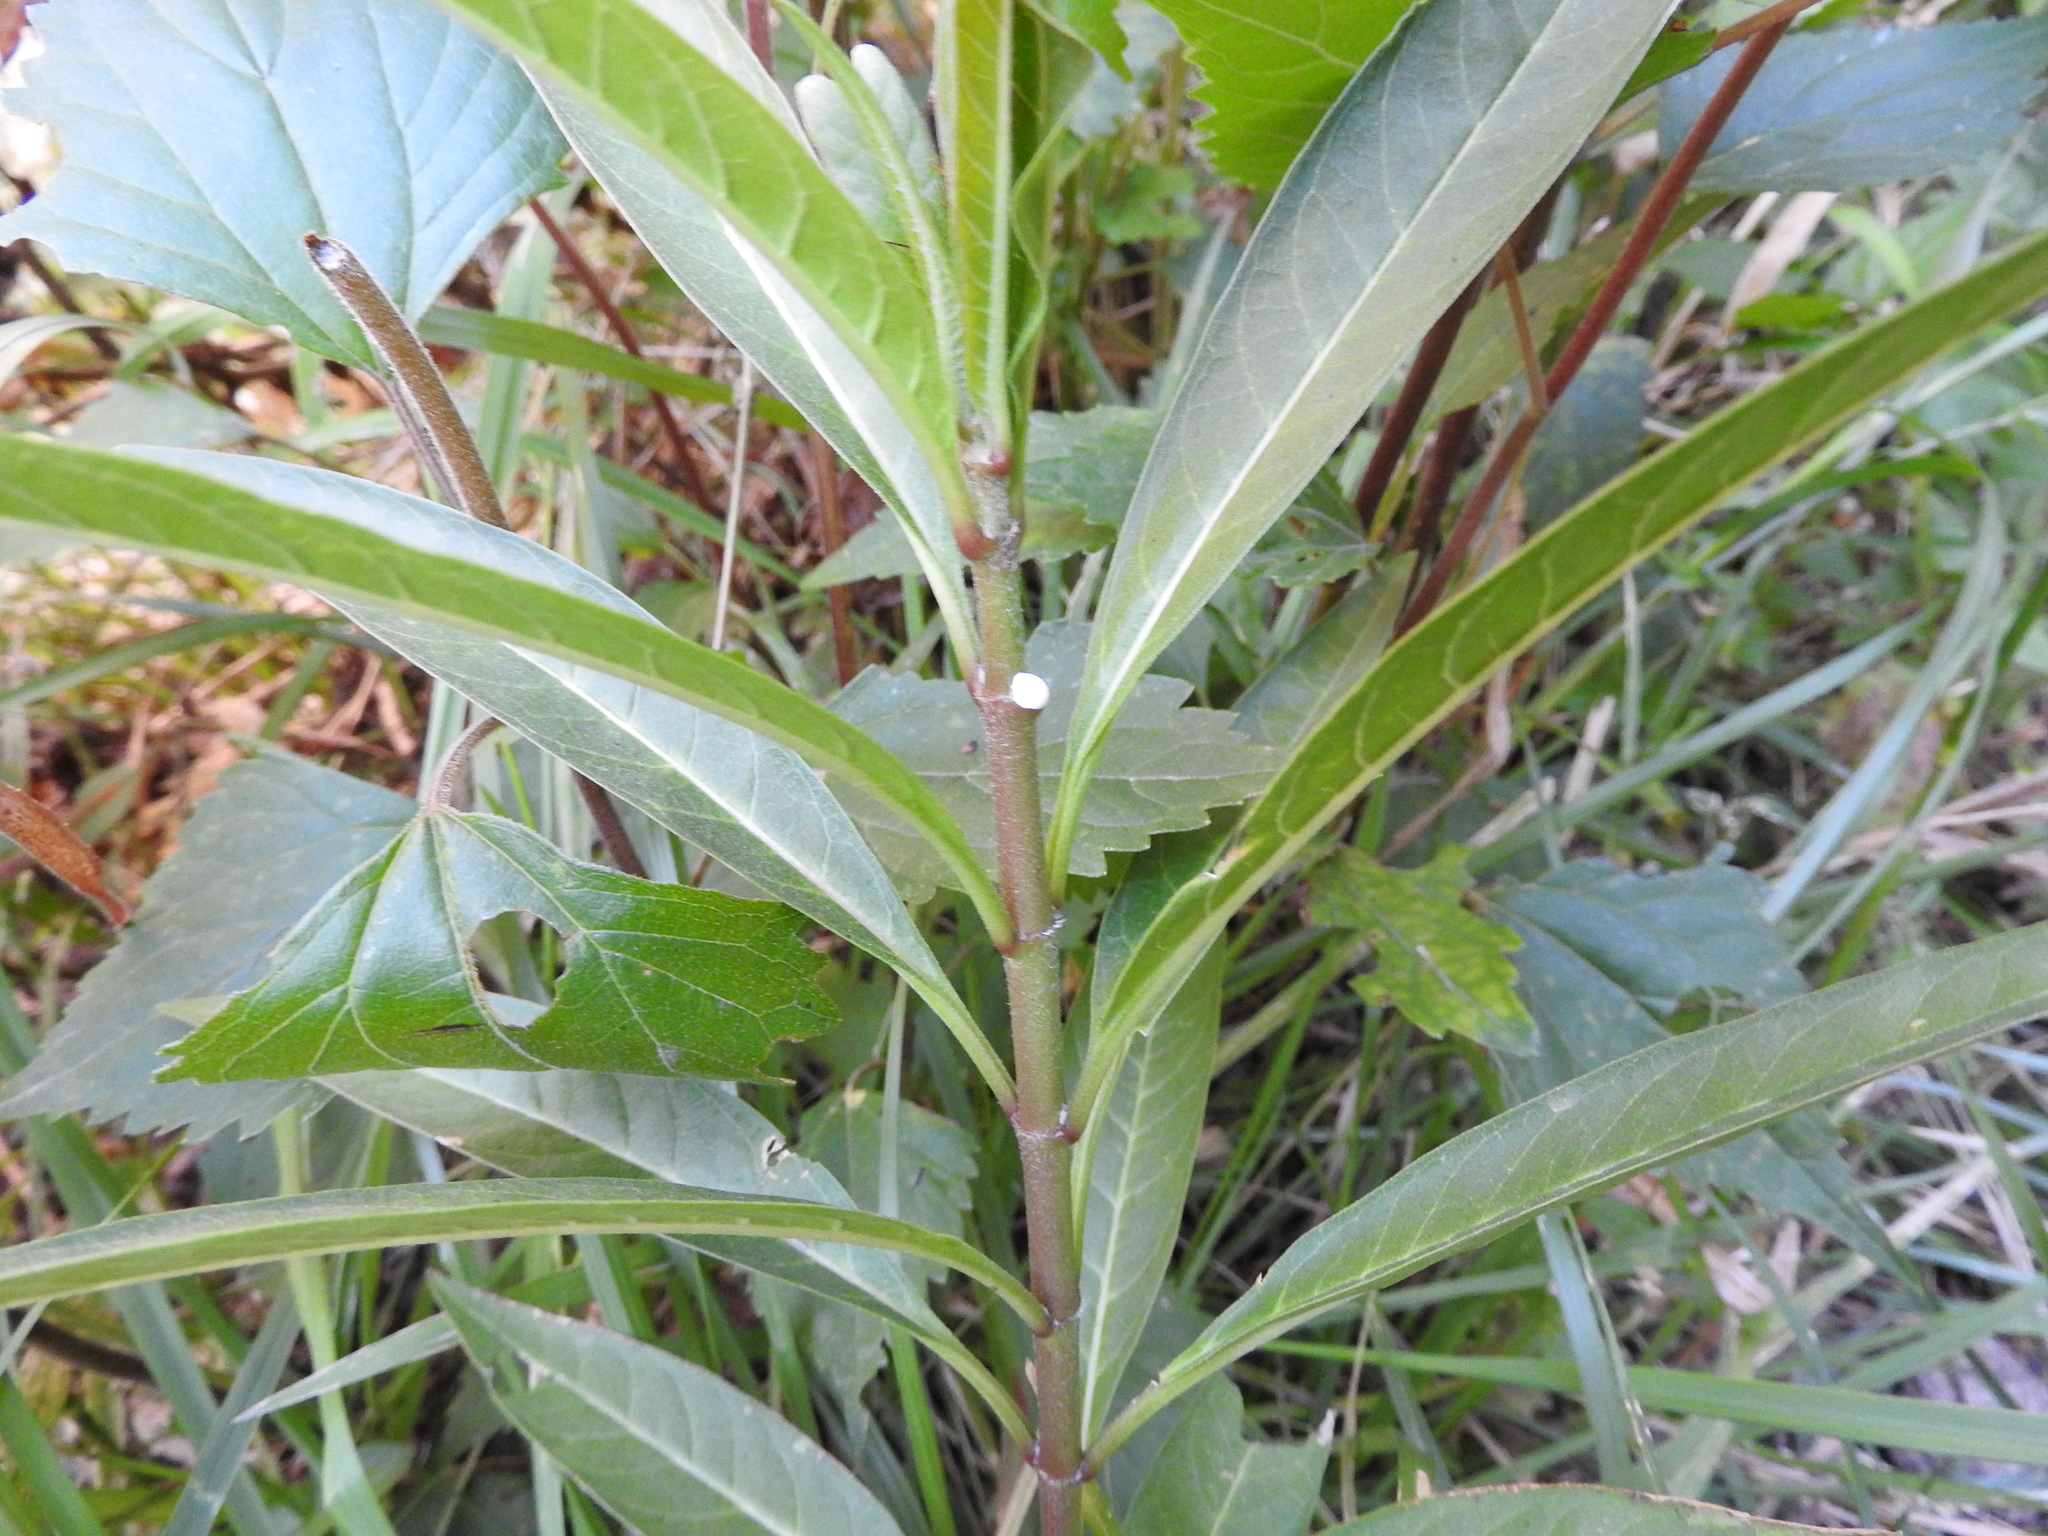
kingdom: Plantae
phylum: Tracheophyta
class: Magnoliopsida
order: Gentianales
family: Apocynaceae
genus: Asclepias
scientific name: Asclepias curassavica
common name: Bloodflower
